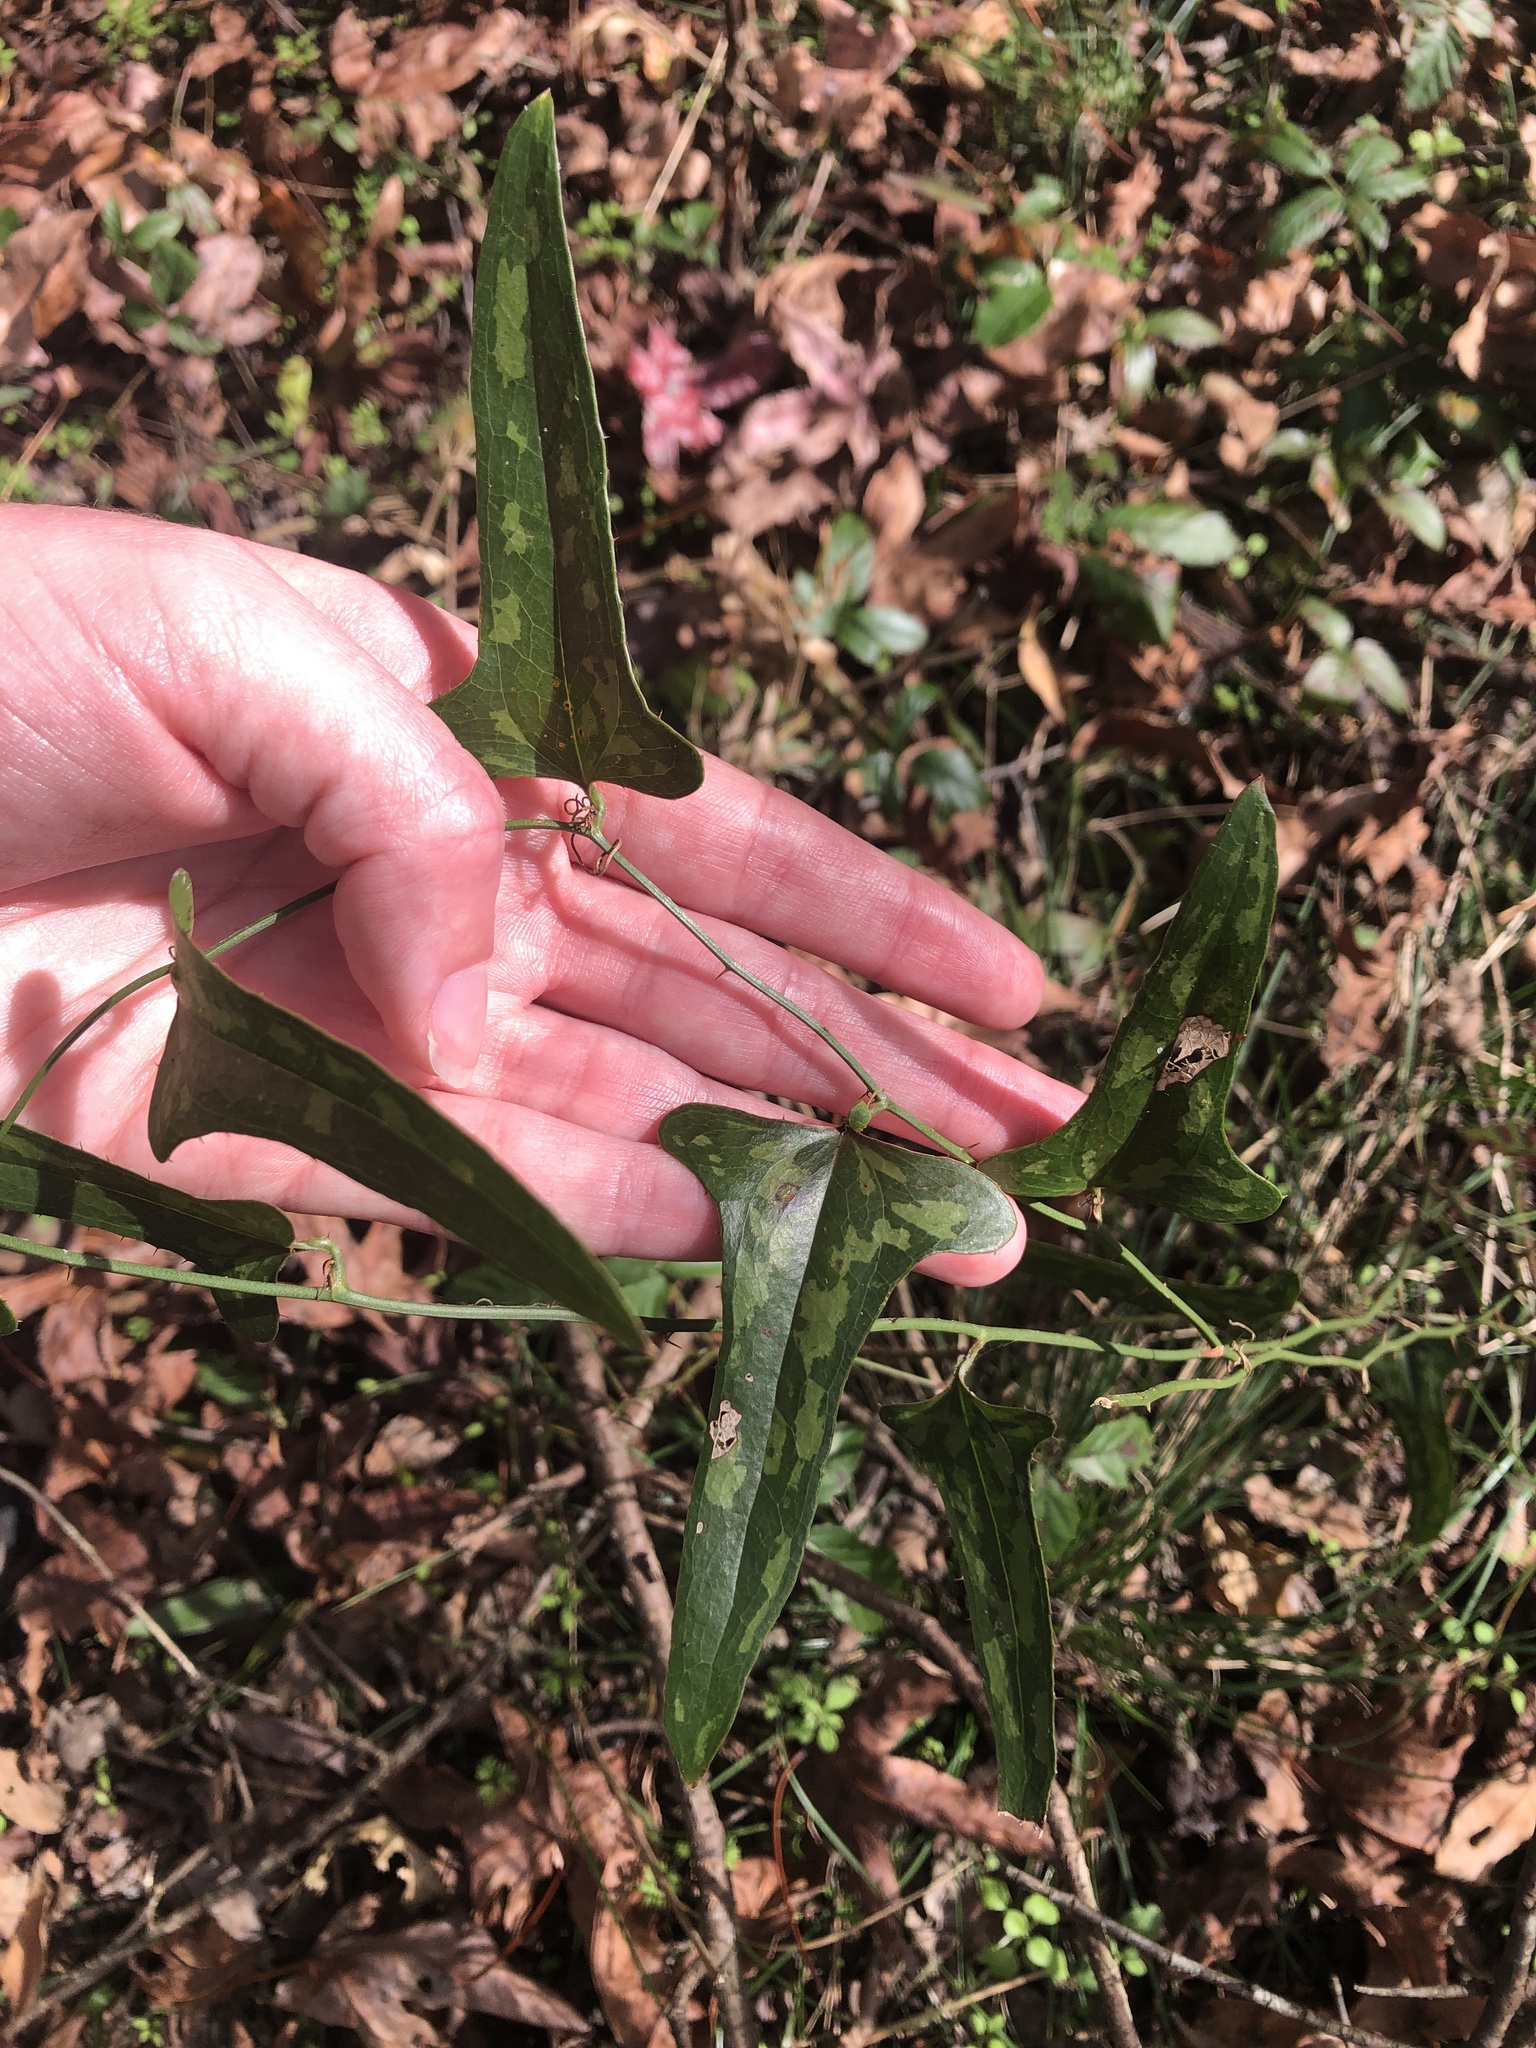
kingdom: Plantae
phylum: Tracheophyta
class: Liliopsida
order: Liliales
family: Smilacaceae
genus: Smilax
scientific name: Smilax bona-nox
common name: Catbrier
